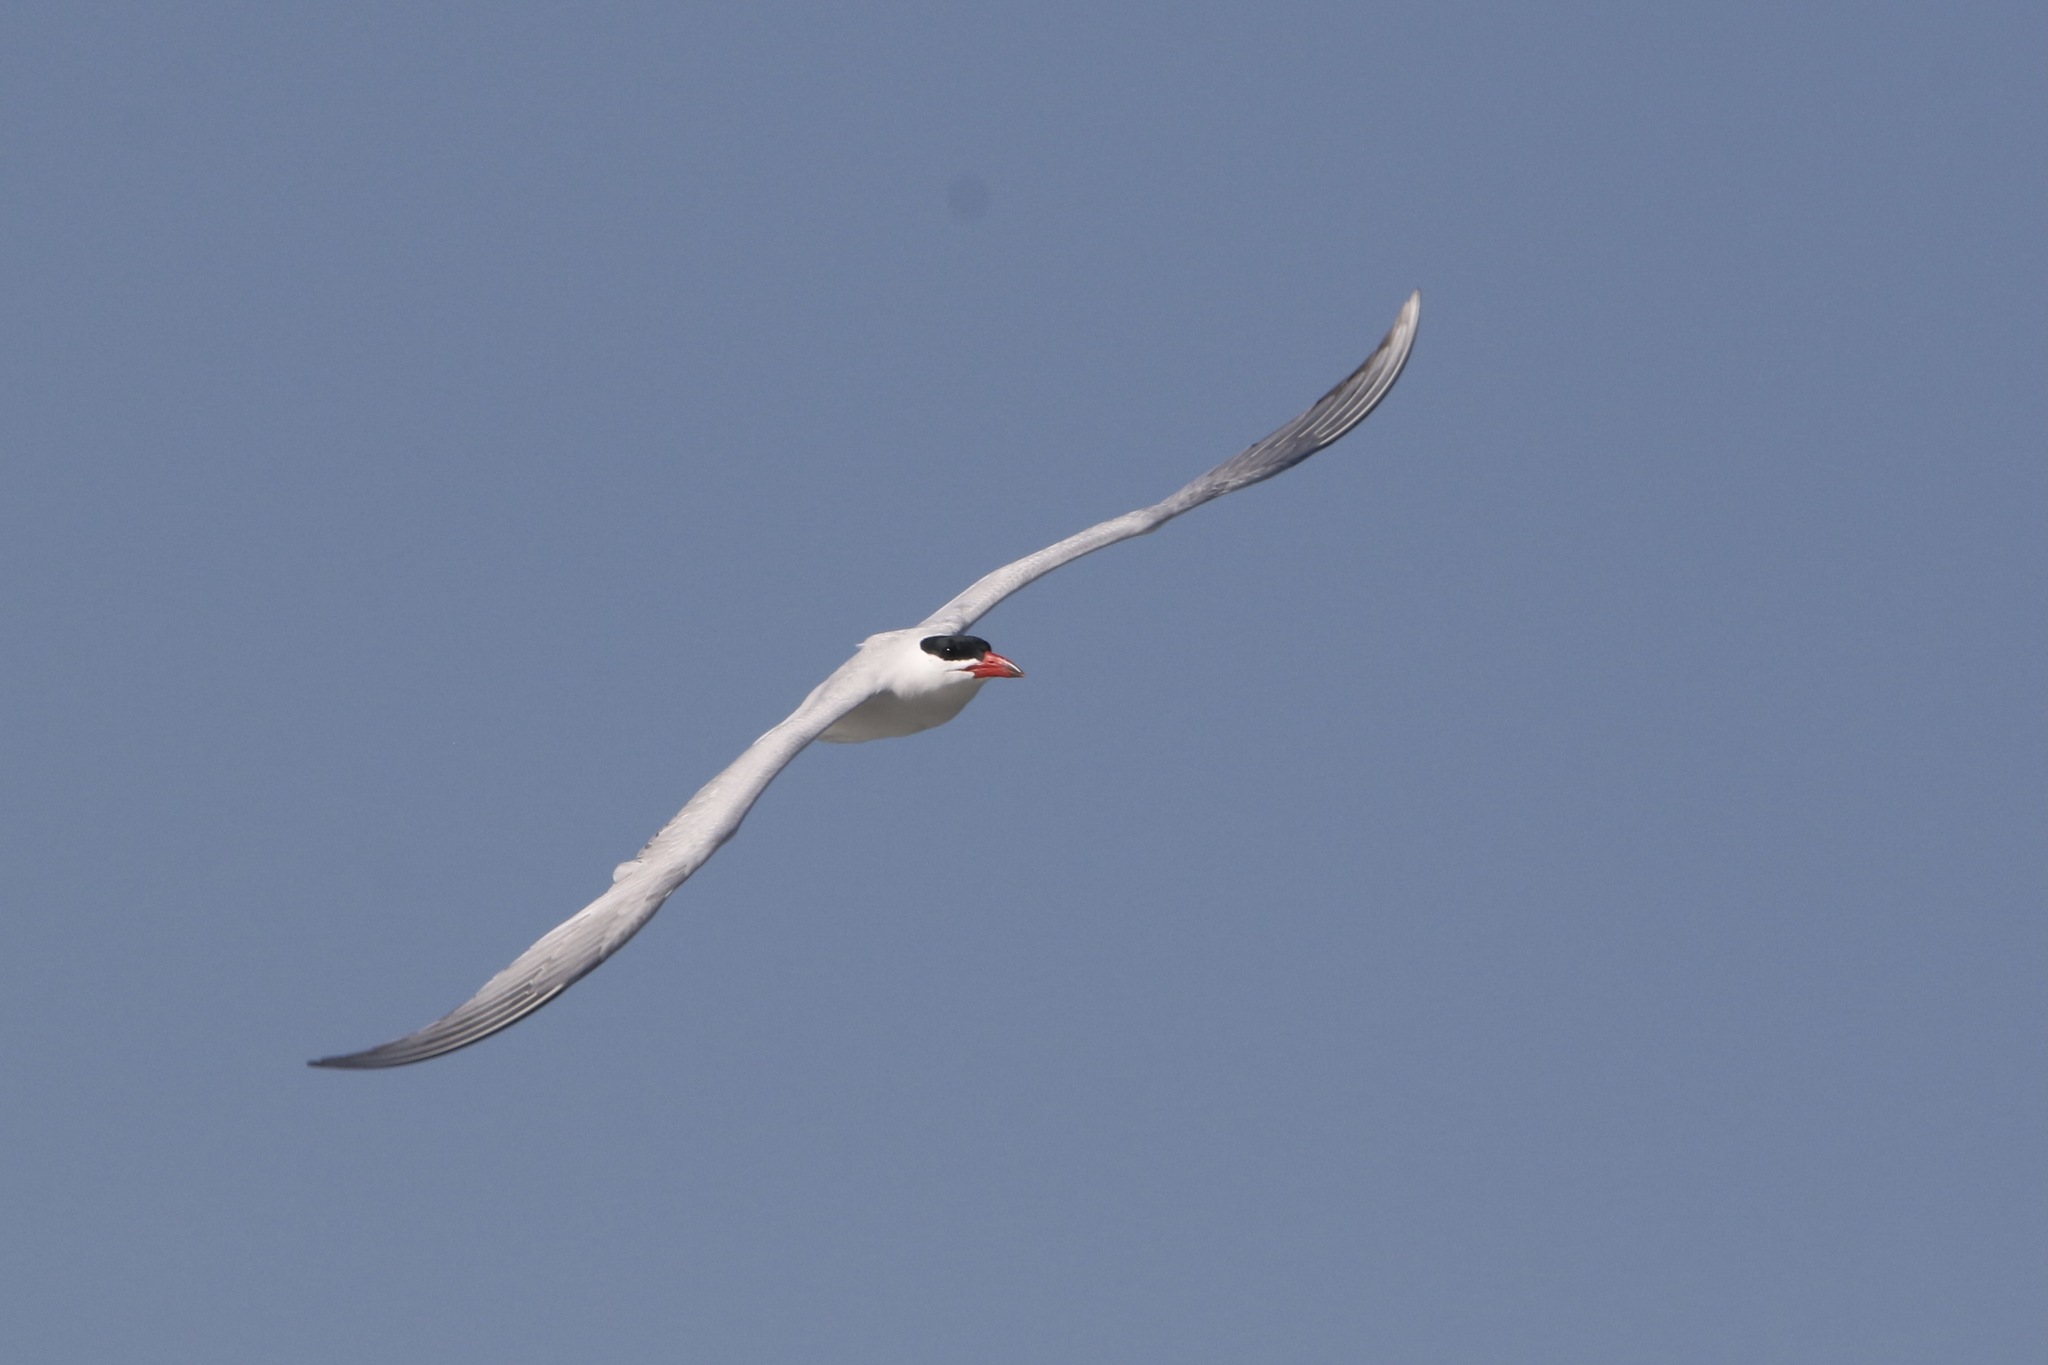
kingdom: Animalia
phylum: Chordata
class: Aves
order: Charadriiformes
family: Laridae
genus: Hydroprogne
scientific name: Hydroprogne caspia
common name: Caspian tern
